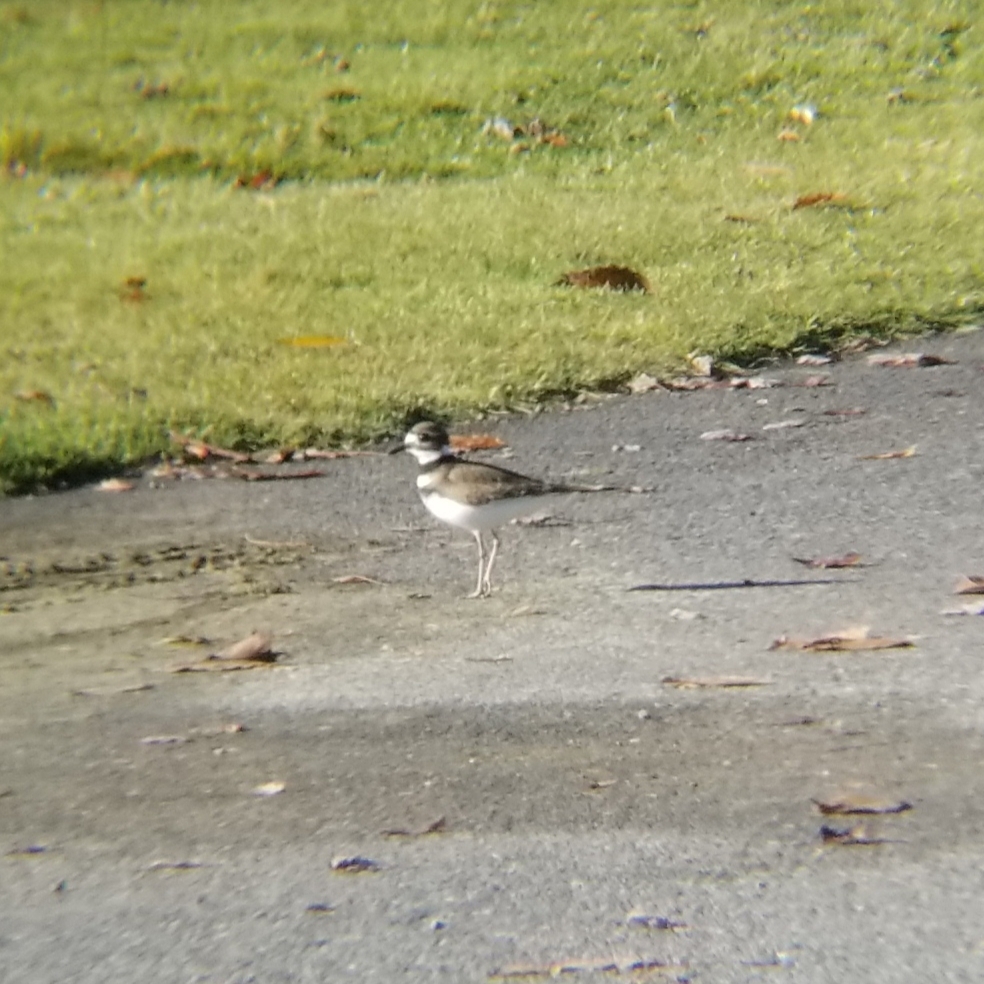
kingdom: Animalia
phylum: Chordata
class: Aves
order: Charadriiformes
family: Charadriidae
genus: Charadrius
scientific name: Charadrius vociferus
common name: Killdeer
